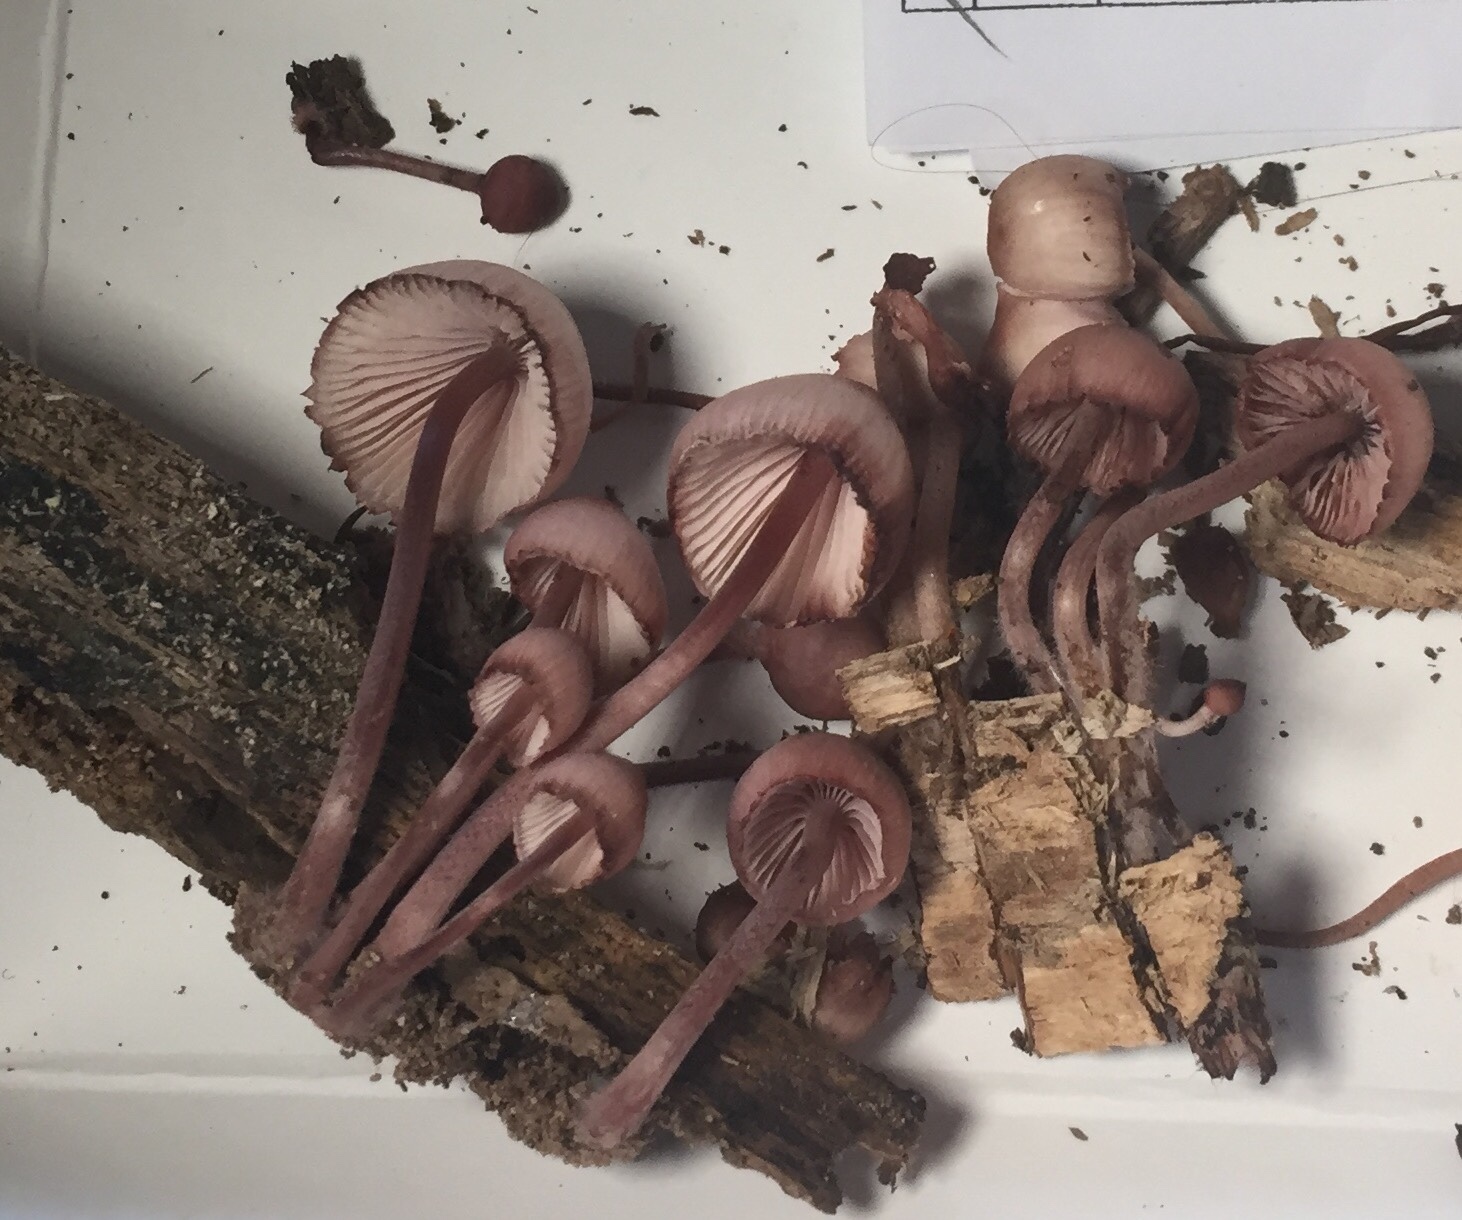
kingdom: Fungi
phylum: Basidiomycota
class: Agaricomycetes
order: Agaricales
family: Mycenaceae
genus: Mycena
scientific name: Mycena haematopus
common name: Burgundydrop bonnet
